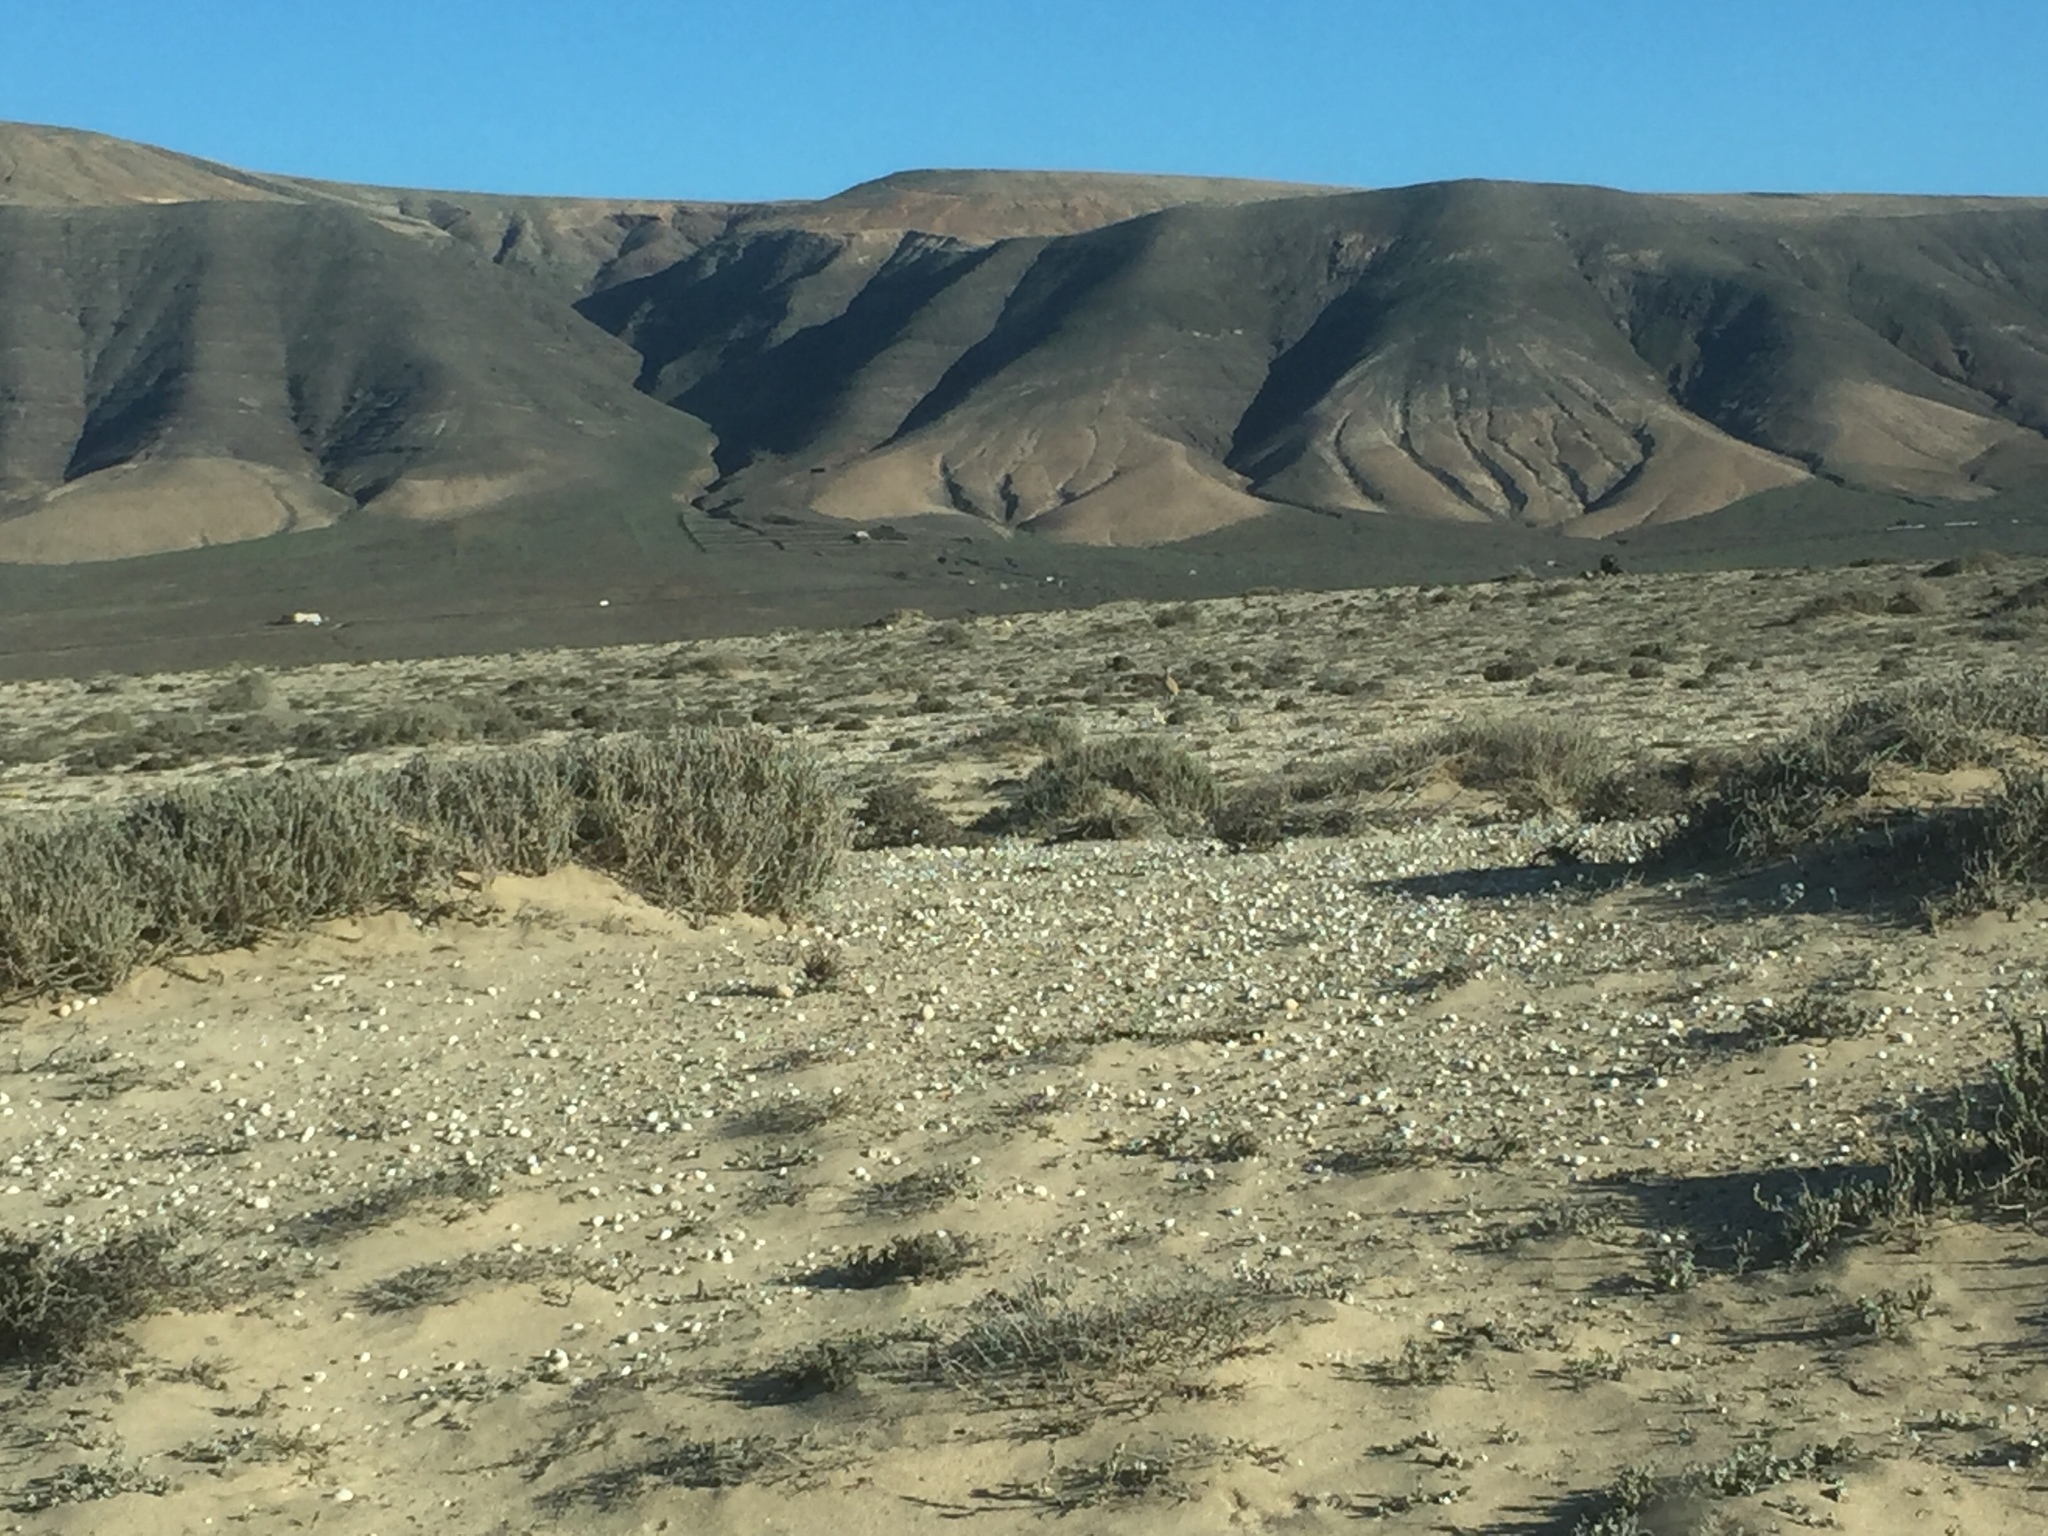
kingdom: Animalia
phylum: Chordata
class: Aves
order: Charadriiformes
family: Glareolidae
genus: Cursorius
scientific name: Cursorius cursor
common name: Cream-colored courser
